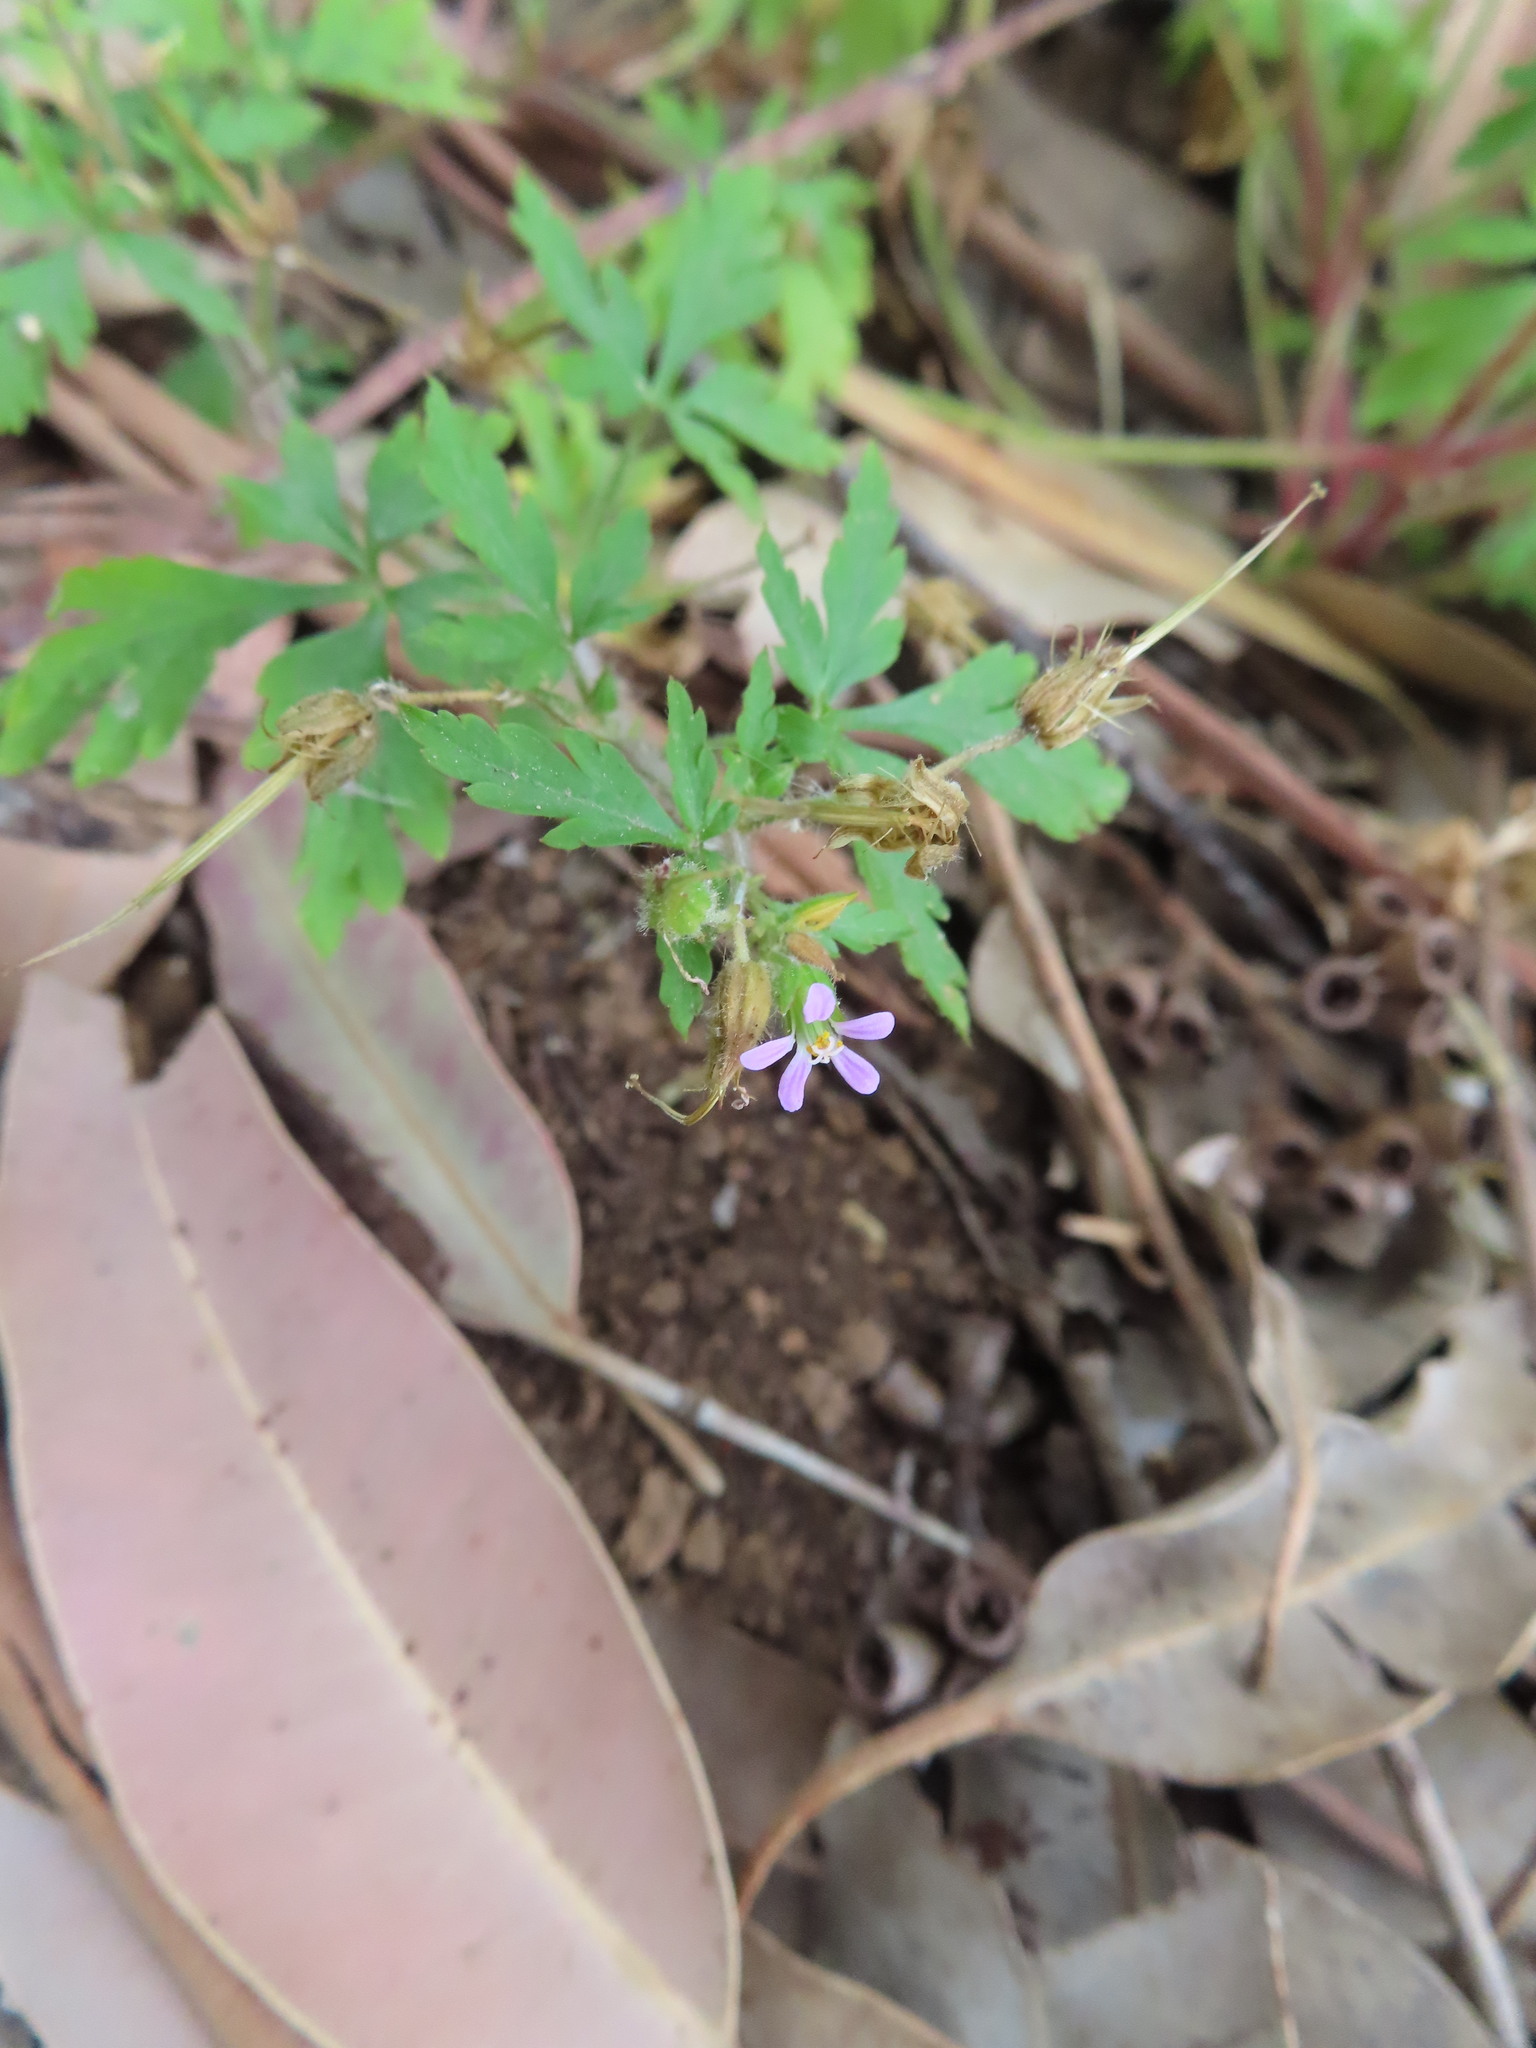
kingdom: Plantae
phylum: Tracheophyta
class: Magnoliopsida
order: Geraniales
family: Geraniaceae
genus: Geranium
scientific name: Geranium purpureum
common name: Little-robin
